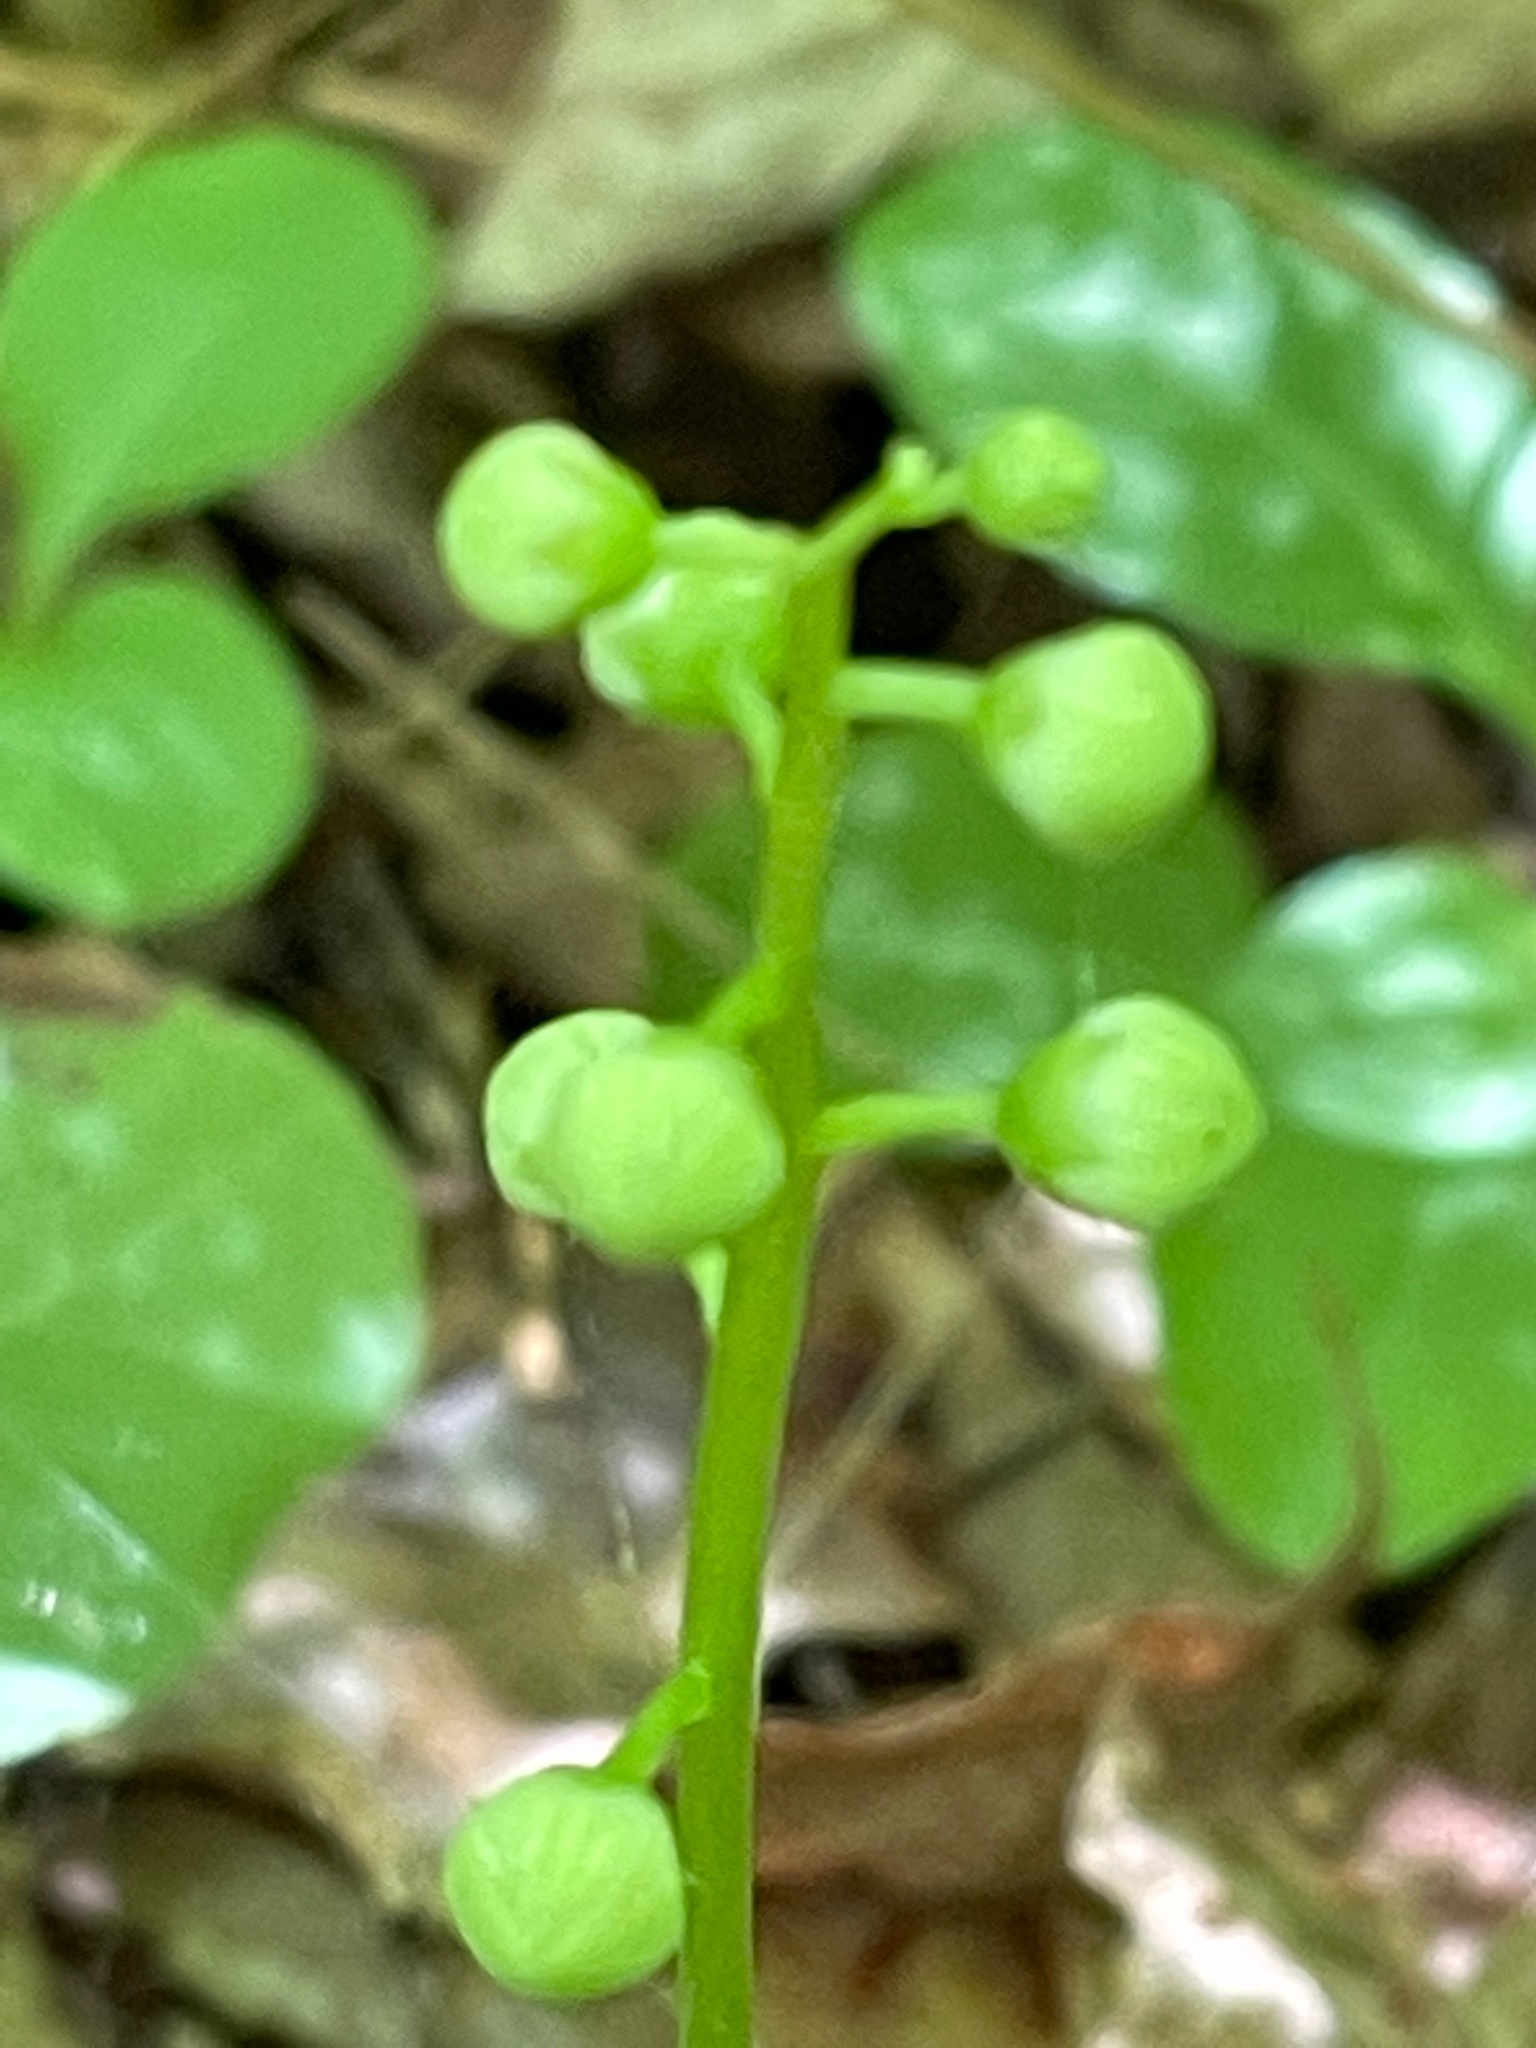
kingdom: Plantae
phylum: Tracheophyta
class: Magnoliopsida
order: Ericales
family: Ericaceae
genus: Pyrola
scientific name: Pyrola elliptica
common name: Shinleaf
